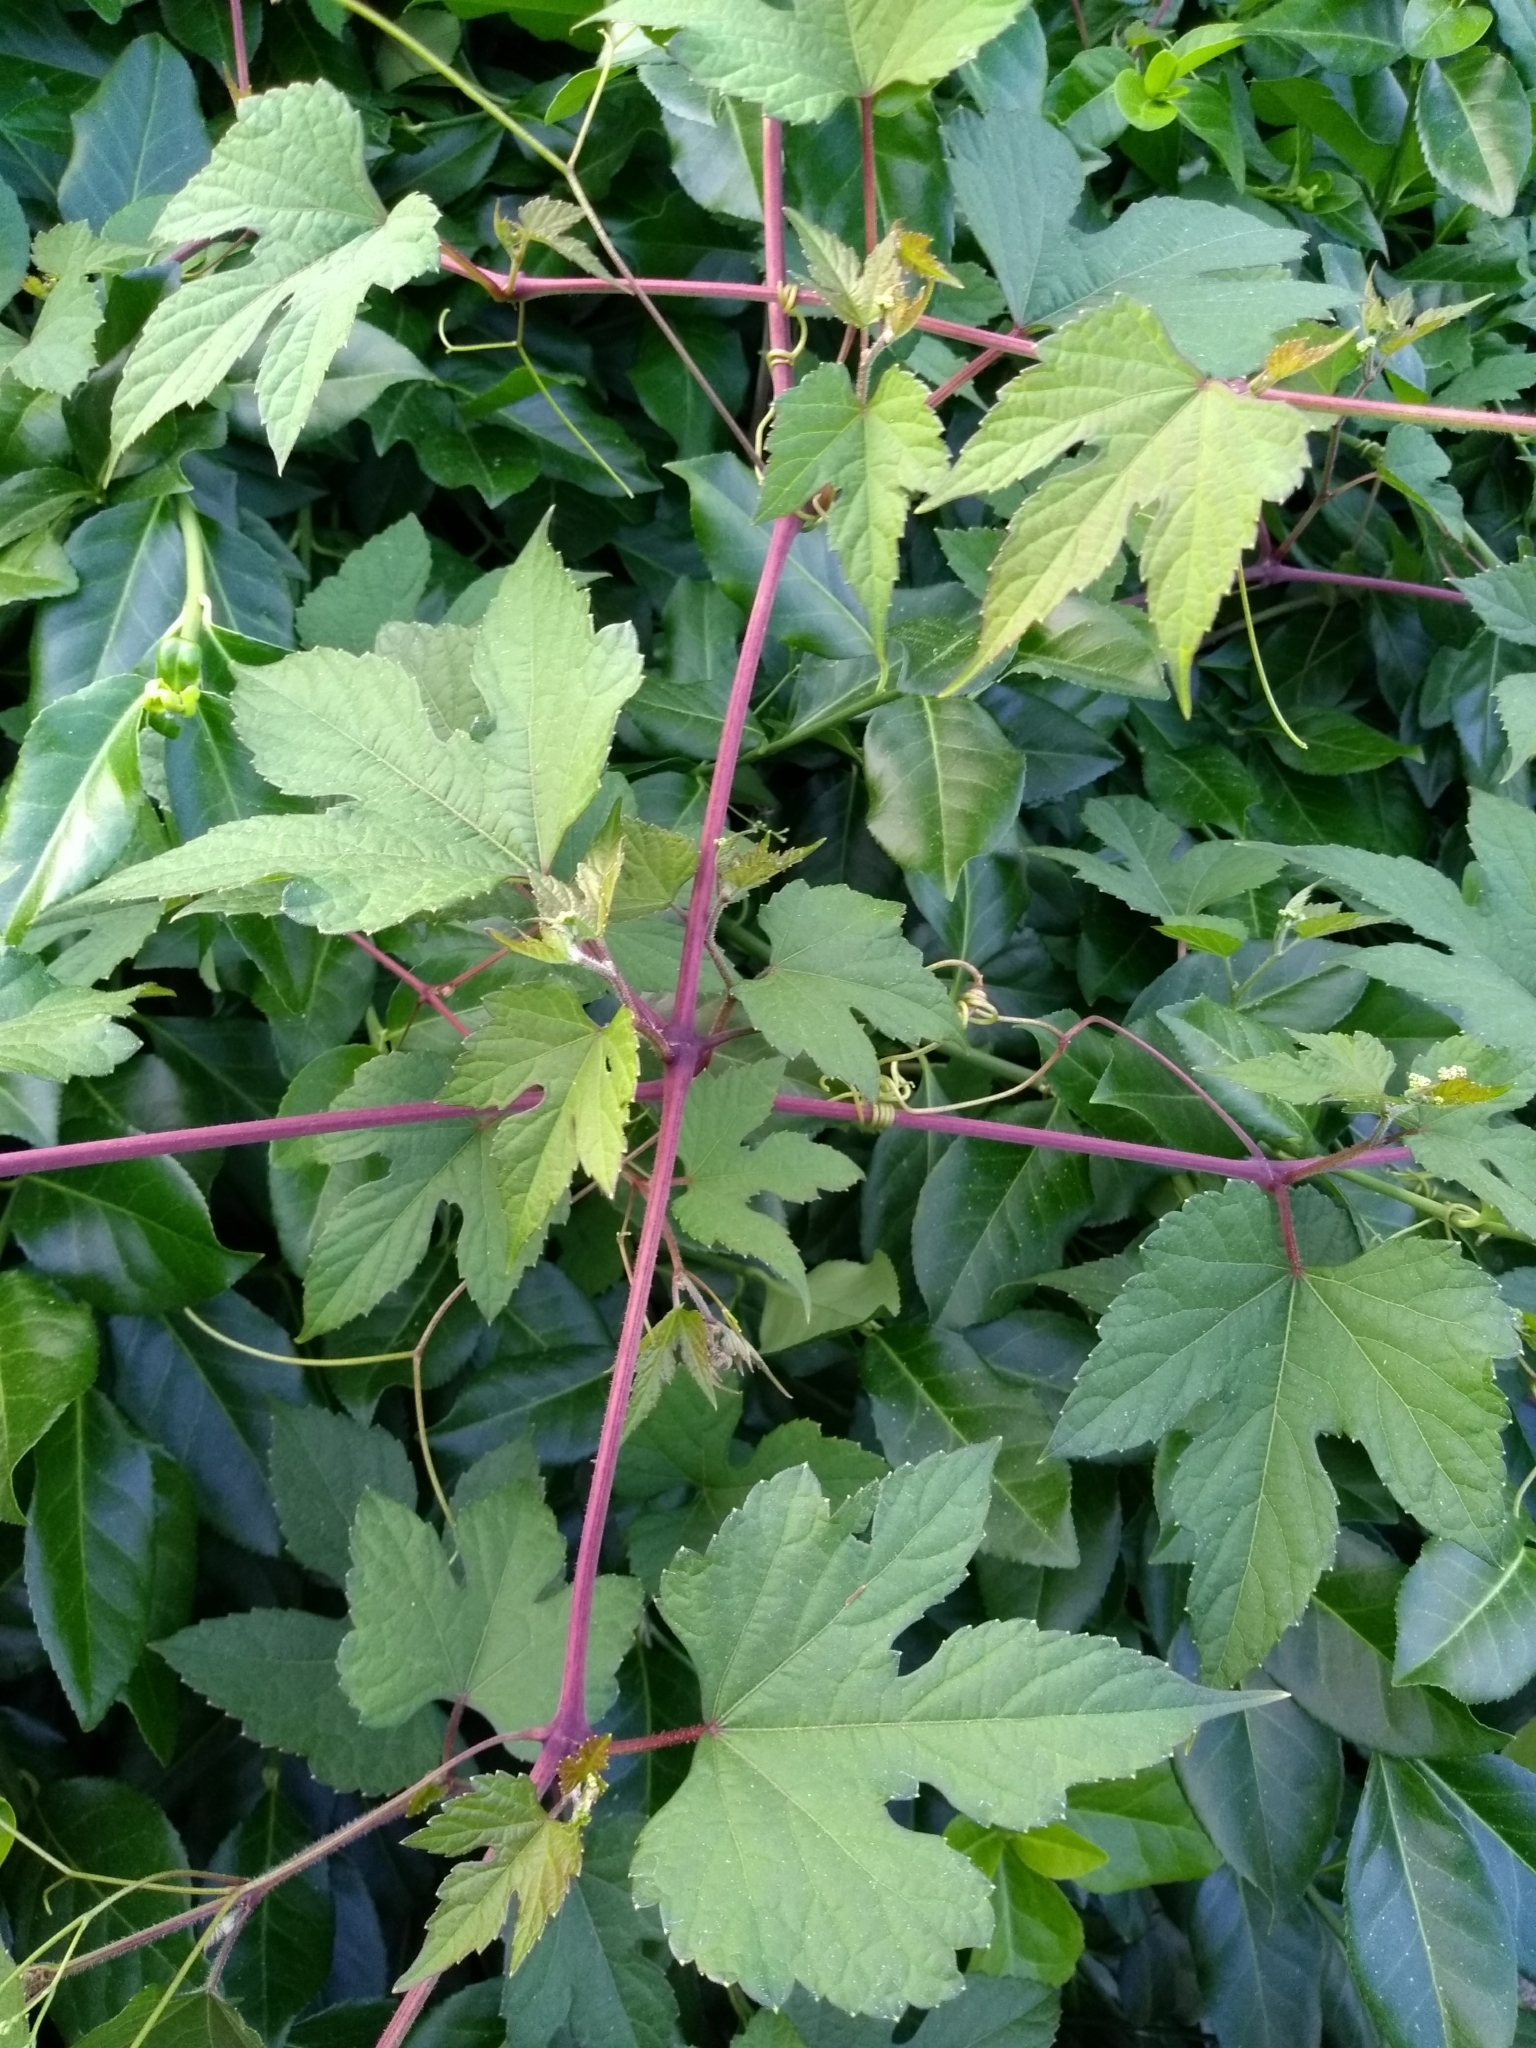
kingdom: Plantae
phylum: Tracheophyta
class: Magnoliopsida
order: Vitales
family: Vitaceae
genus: Ampelopsis
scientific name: Ampelopsis glandulosa
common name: Amur peppervine
